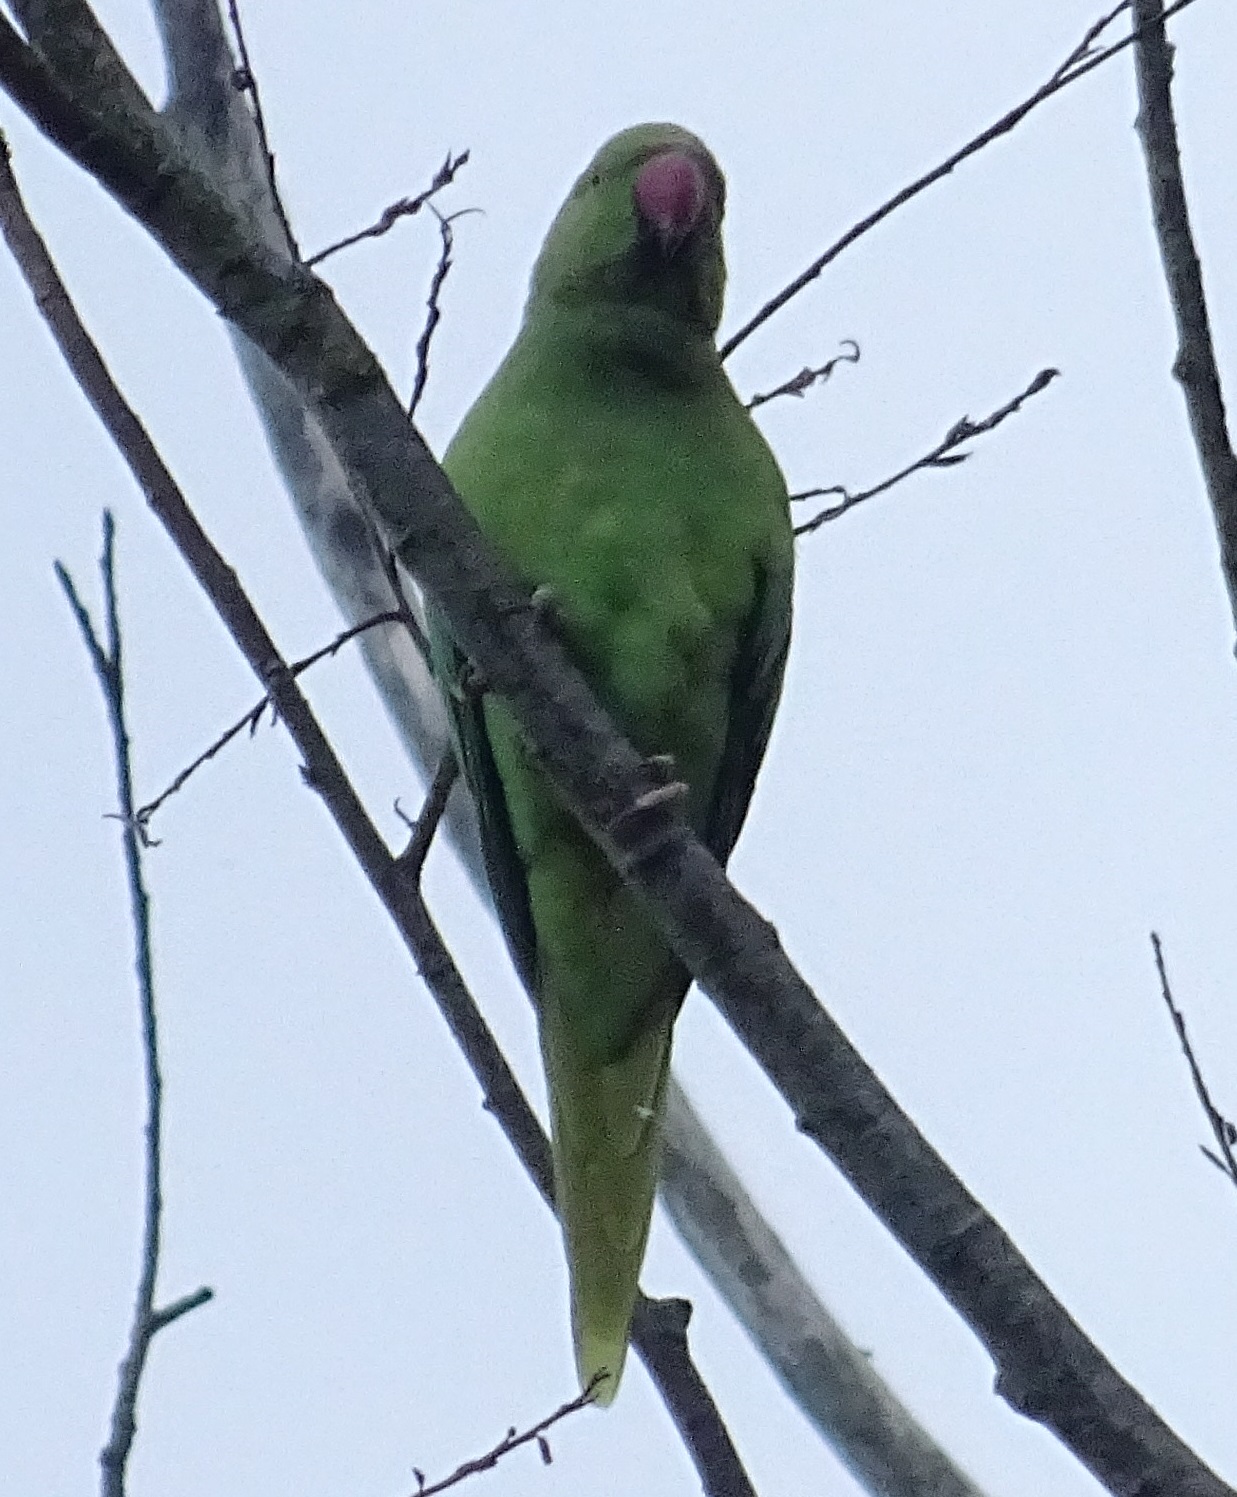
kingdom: Animalia
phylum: Chordata
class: Aves
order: Psittaciformes
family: Psittacidae
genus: Psittacula
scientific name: Psittacula krameri
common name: Rose-ringed parakeet
